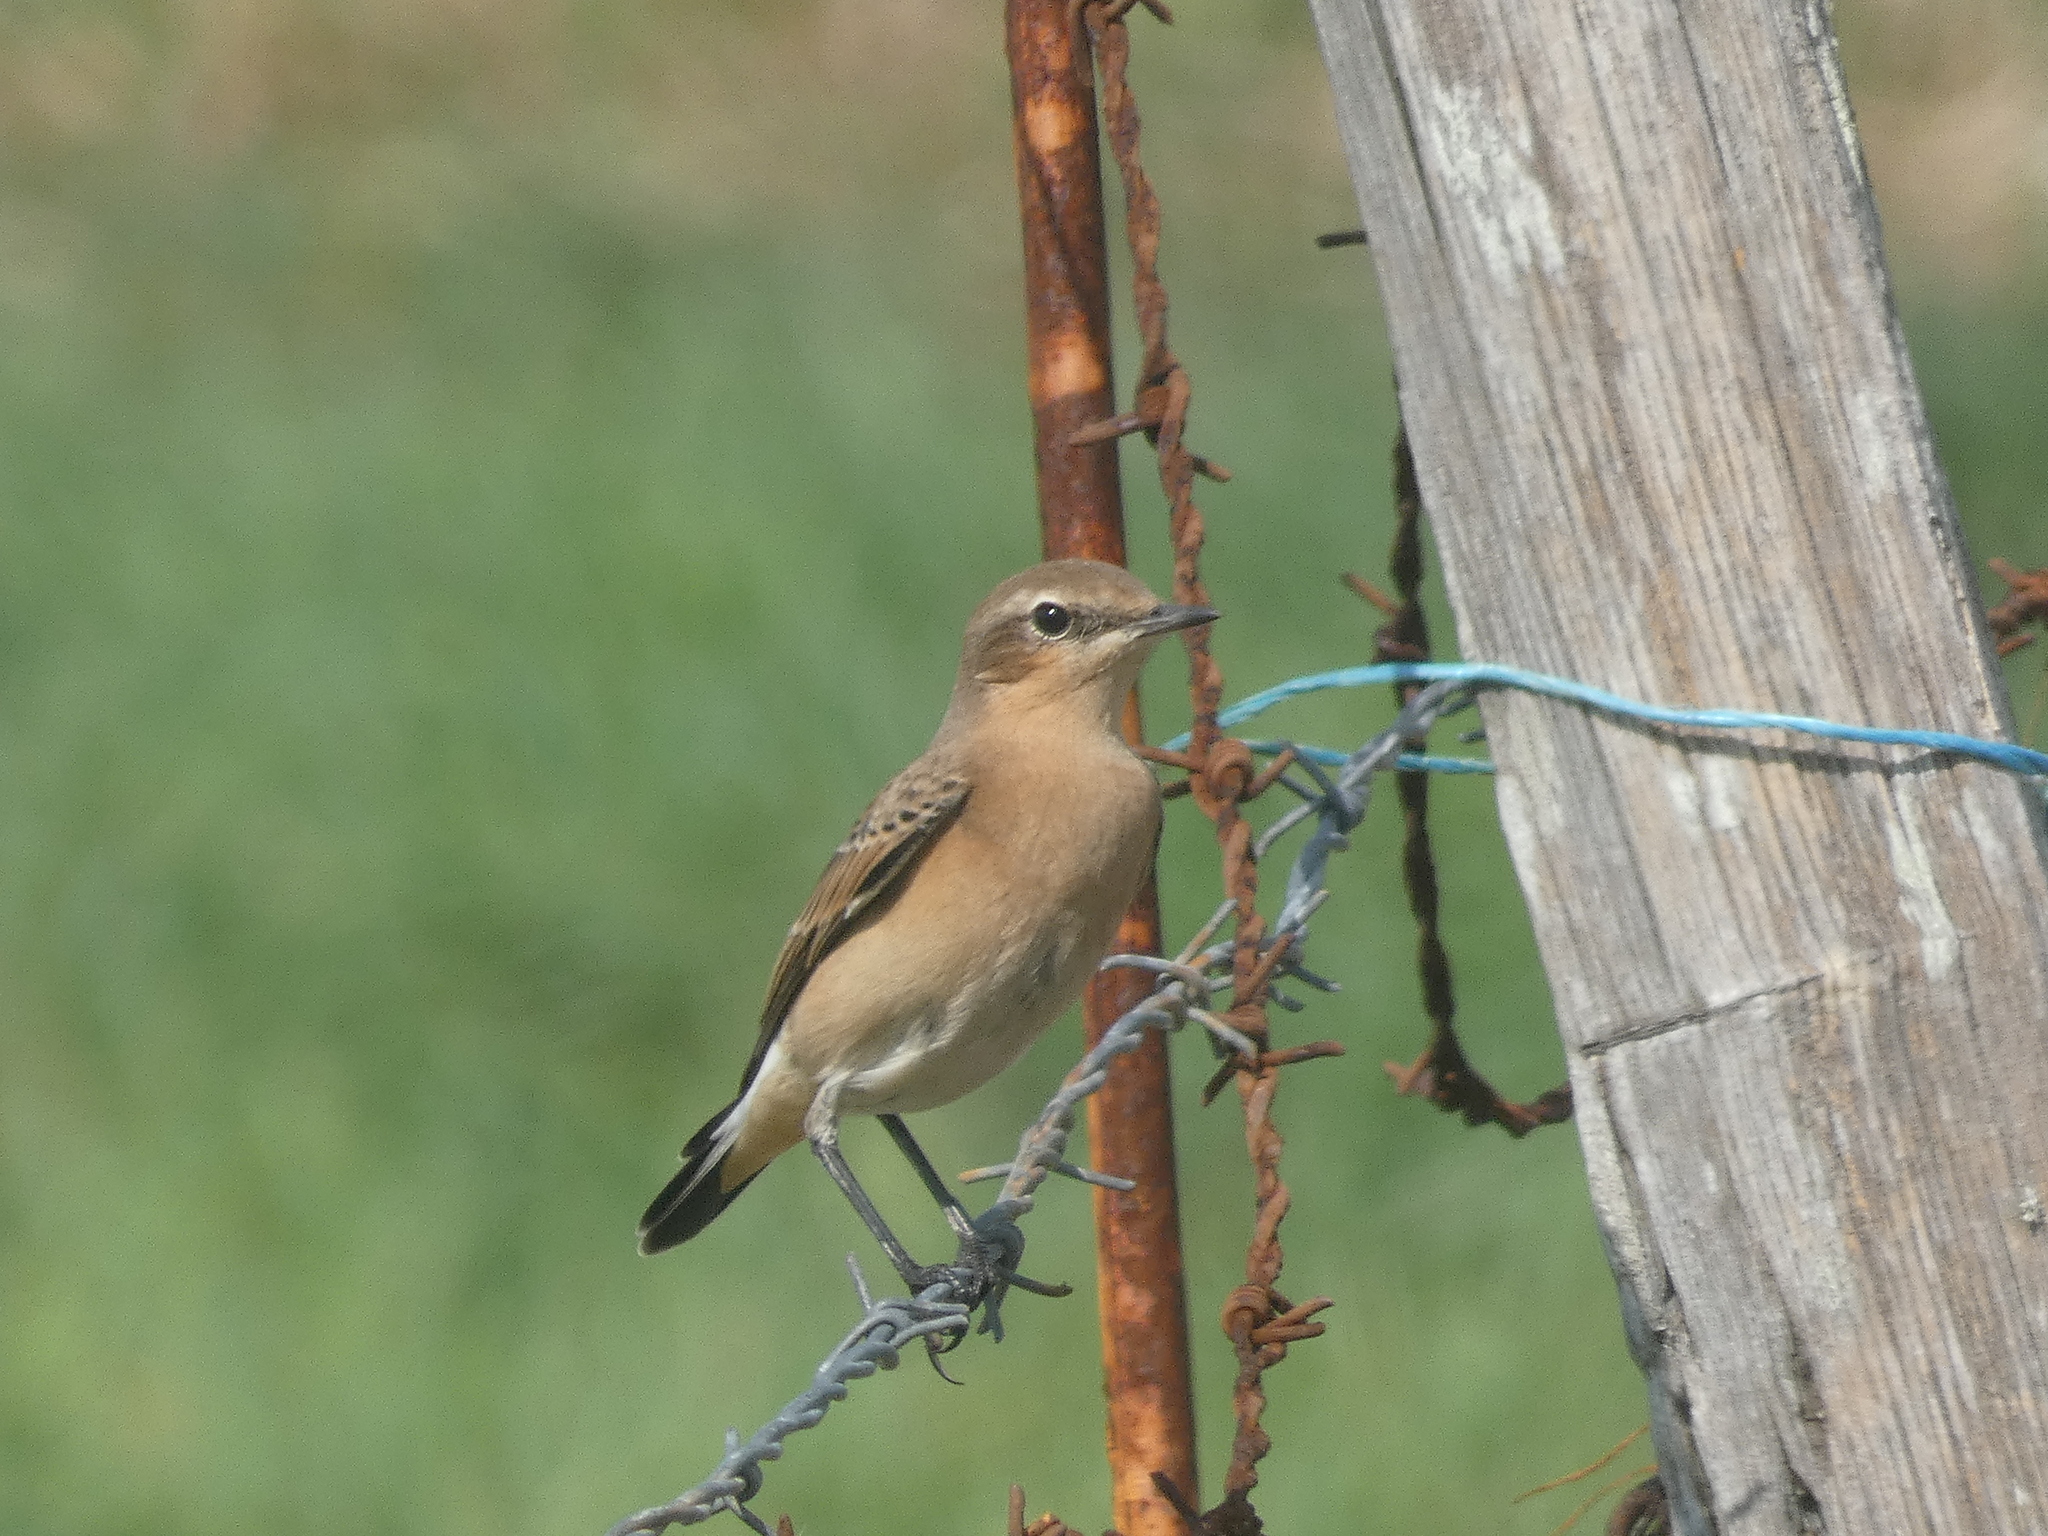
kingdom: Animalia
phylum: Chordata
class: Aves
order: Passeriformes
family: Muscicapidae
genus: Oenanthe
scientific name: Oenanthe oenanthe
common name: Northern wheatear
